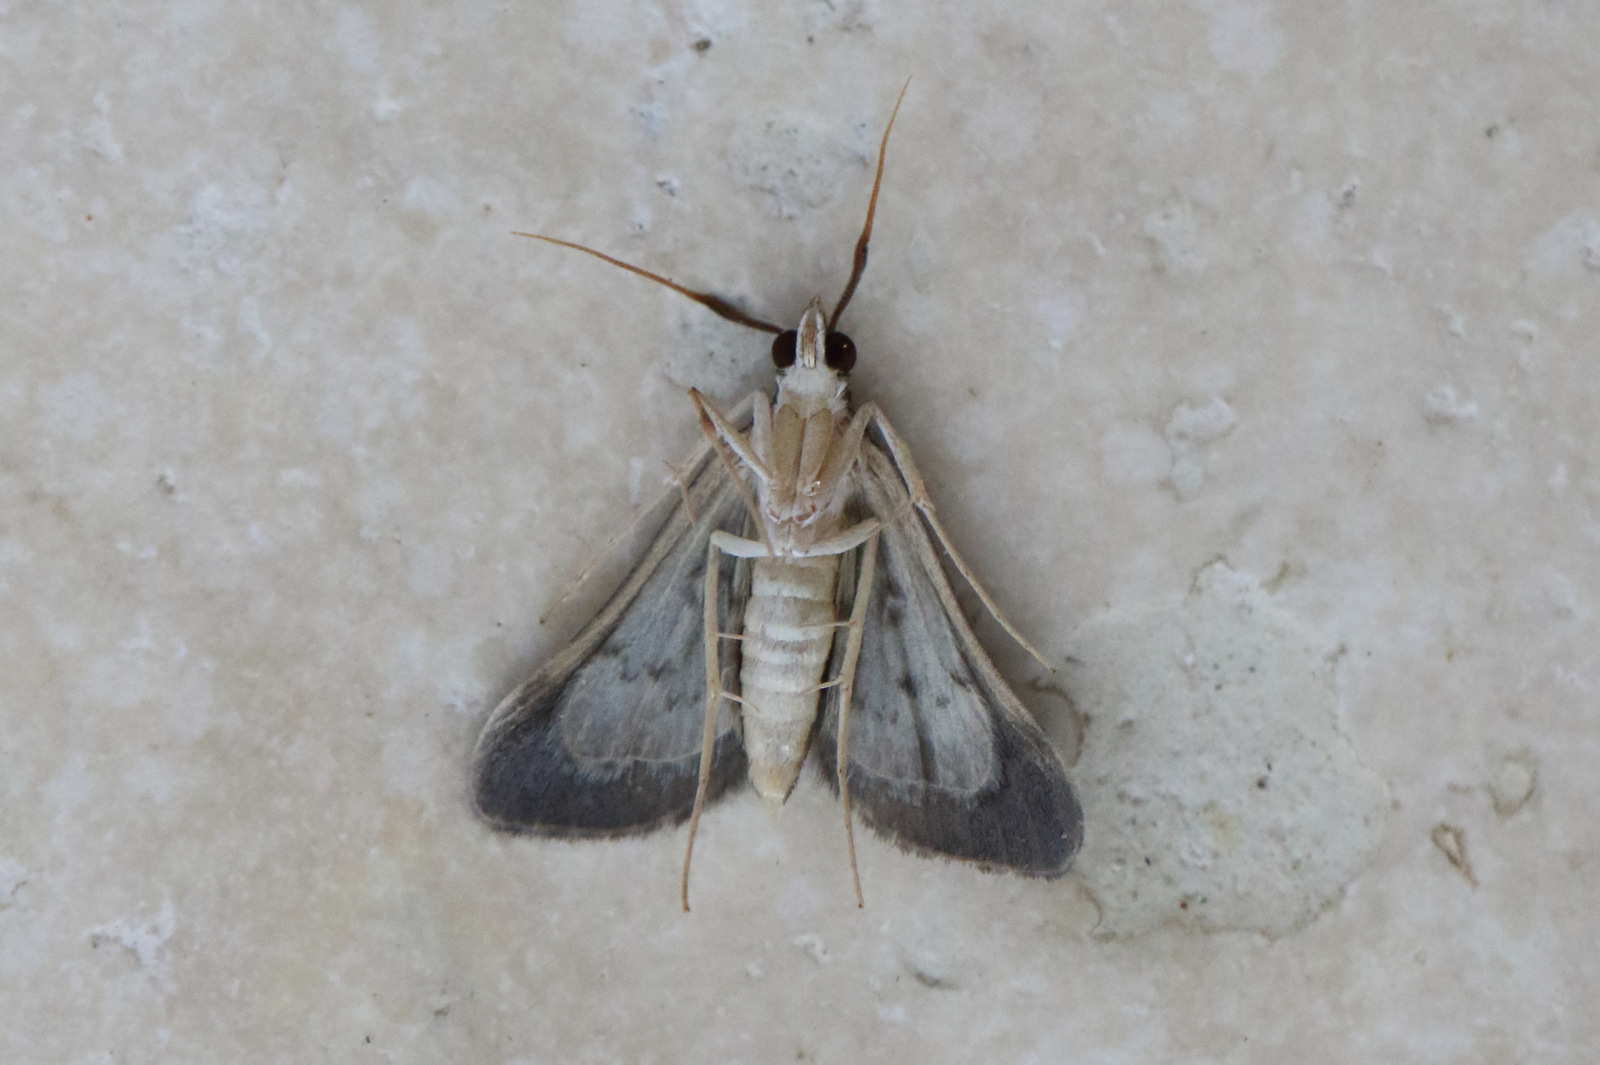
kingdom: Animalia
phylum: Arthropoda
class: Insecta
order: Lepidoptera
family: Crambidae
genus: Piletocera
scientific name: Piletocera macroperalis
